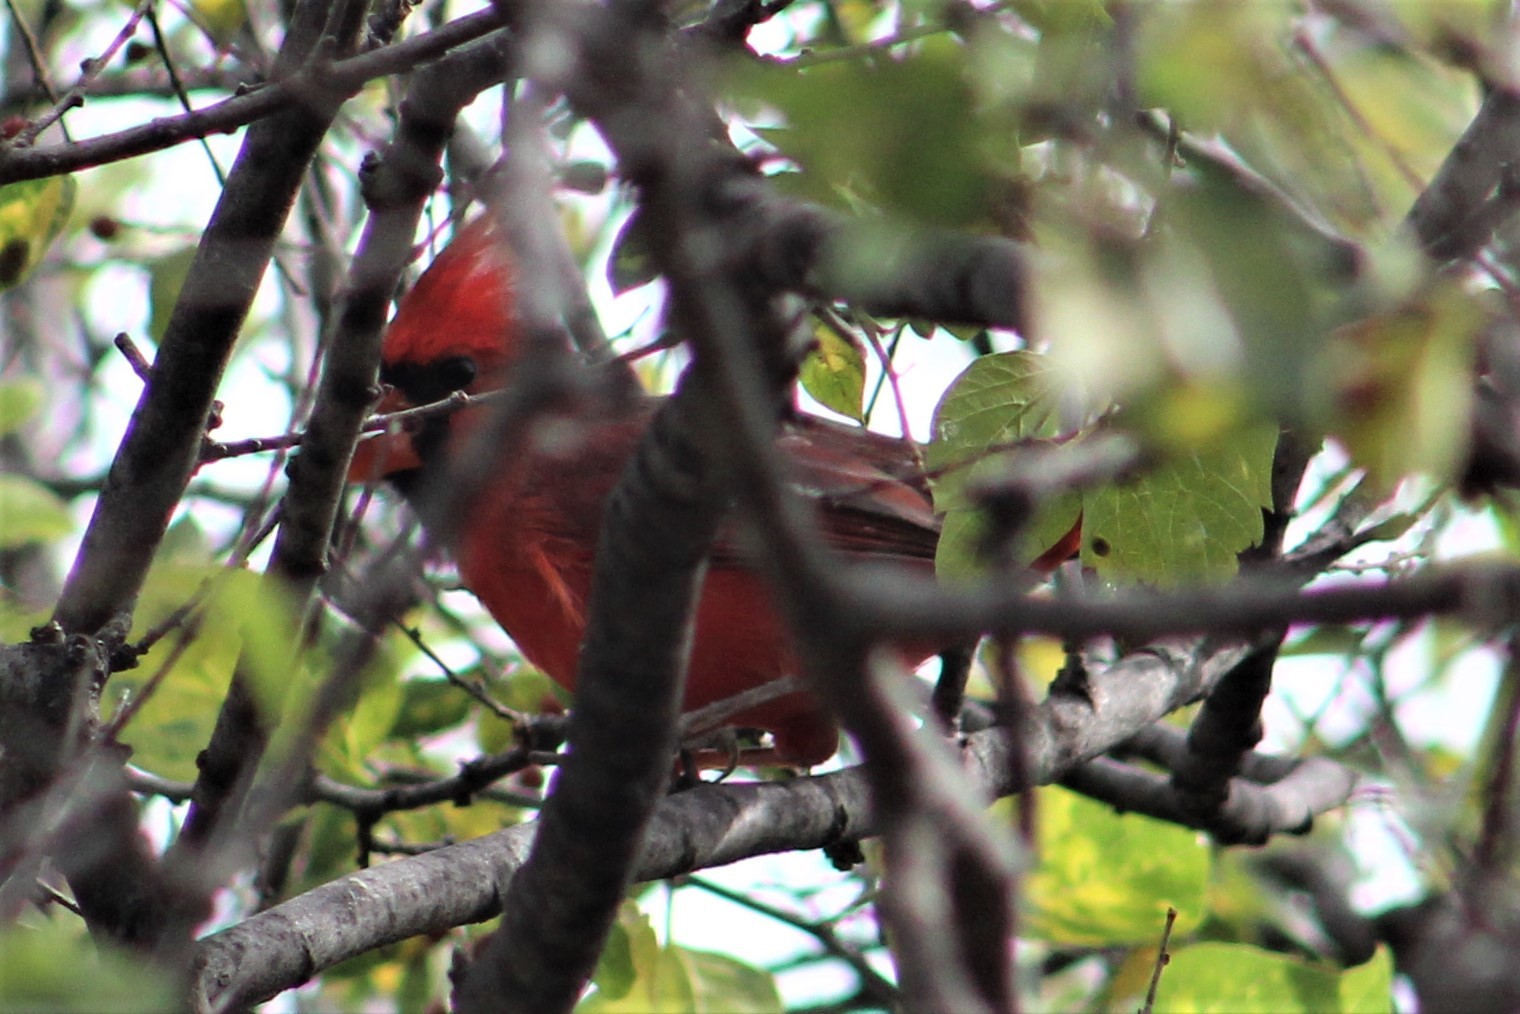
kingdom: Animalia
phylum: Chordata
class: Aves
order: Passeriformes
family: Cardinalidae
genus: Cardinalis
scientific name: Cardinalis cardinalis
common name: Northern cardinal
